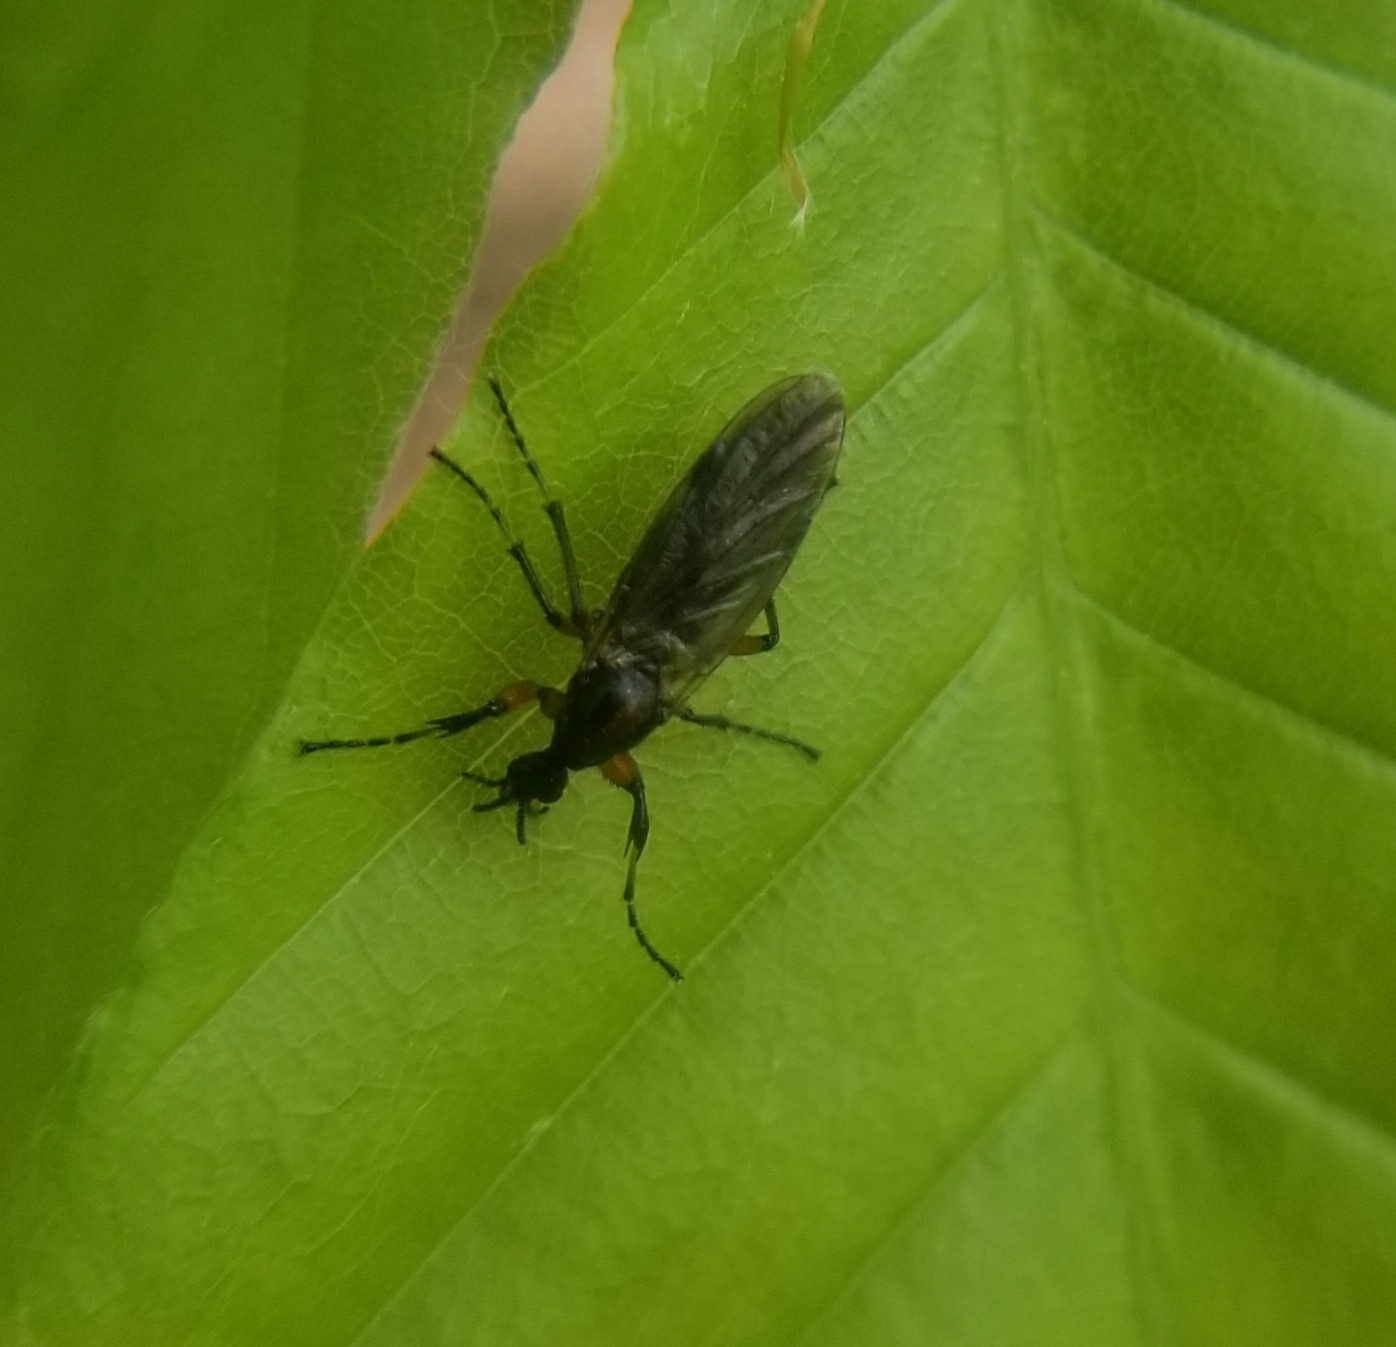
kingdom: Animalia
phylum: Arthropoda
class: Insecta
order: Diptera
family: Bibionidae
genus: Bibio
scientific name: Bibio
